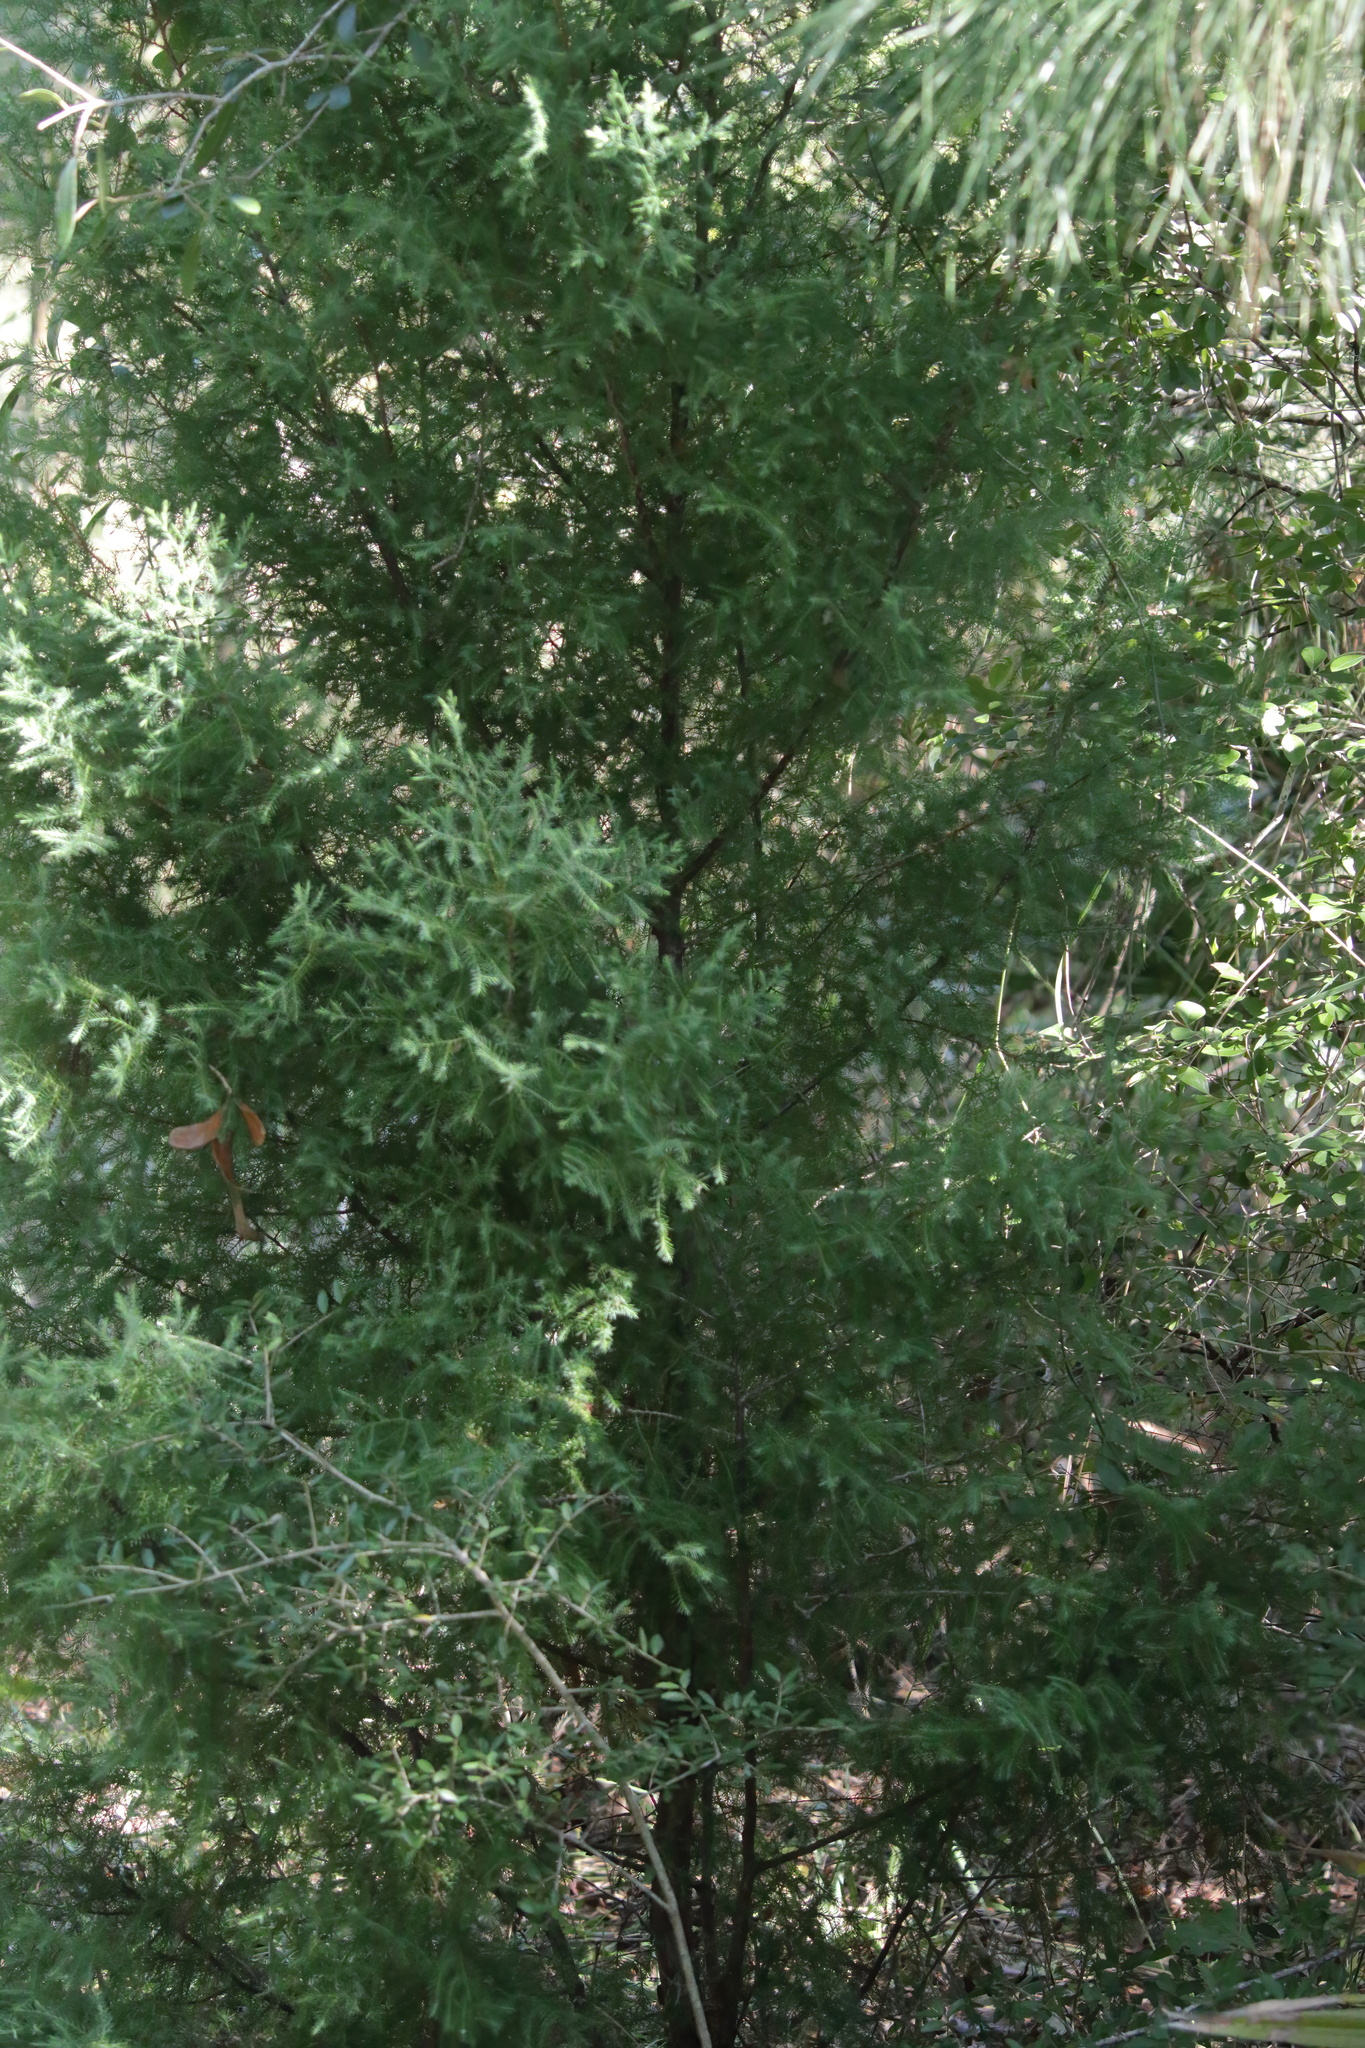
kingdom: Plantae
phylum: Tracheophyta
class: Pinopsida
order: Pinales
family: Cupressaceae
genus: Juniperus
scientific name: Juniperus virginiana
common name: Red juniper
